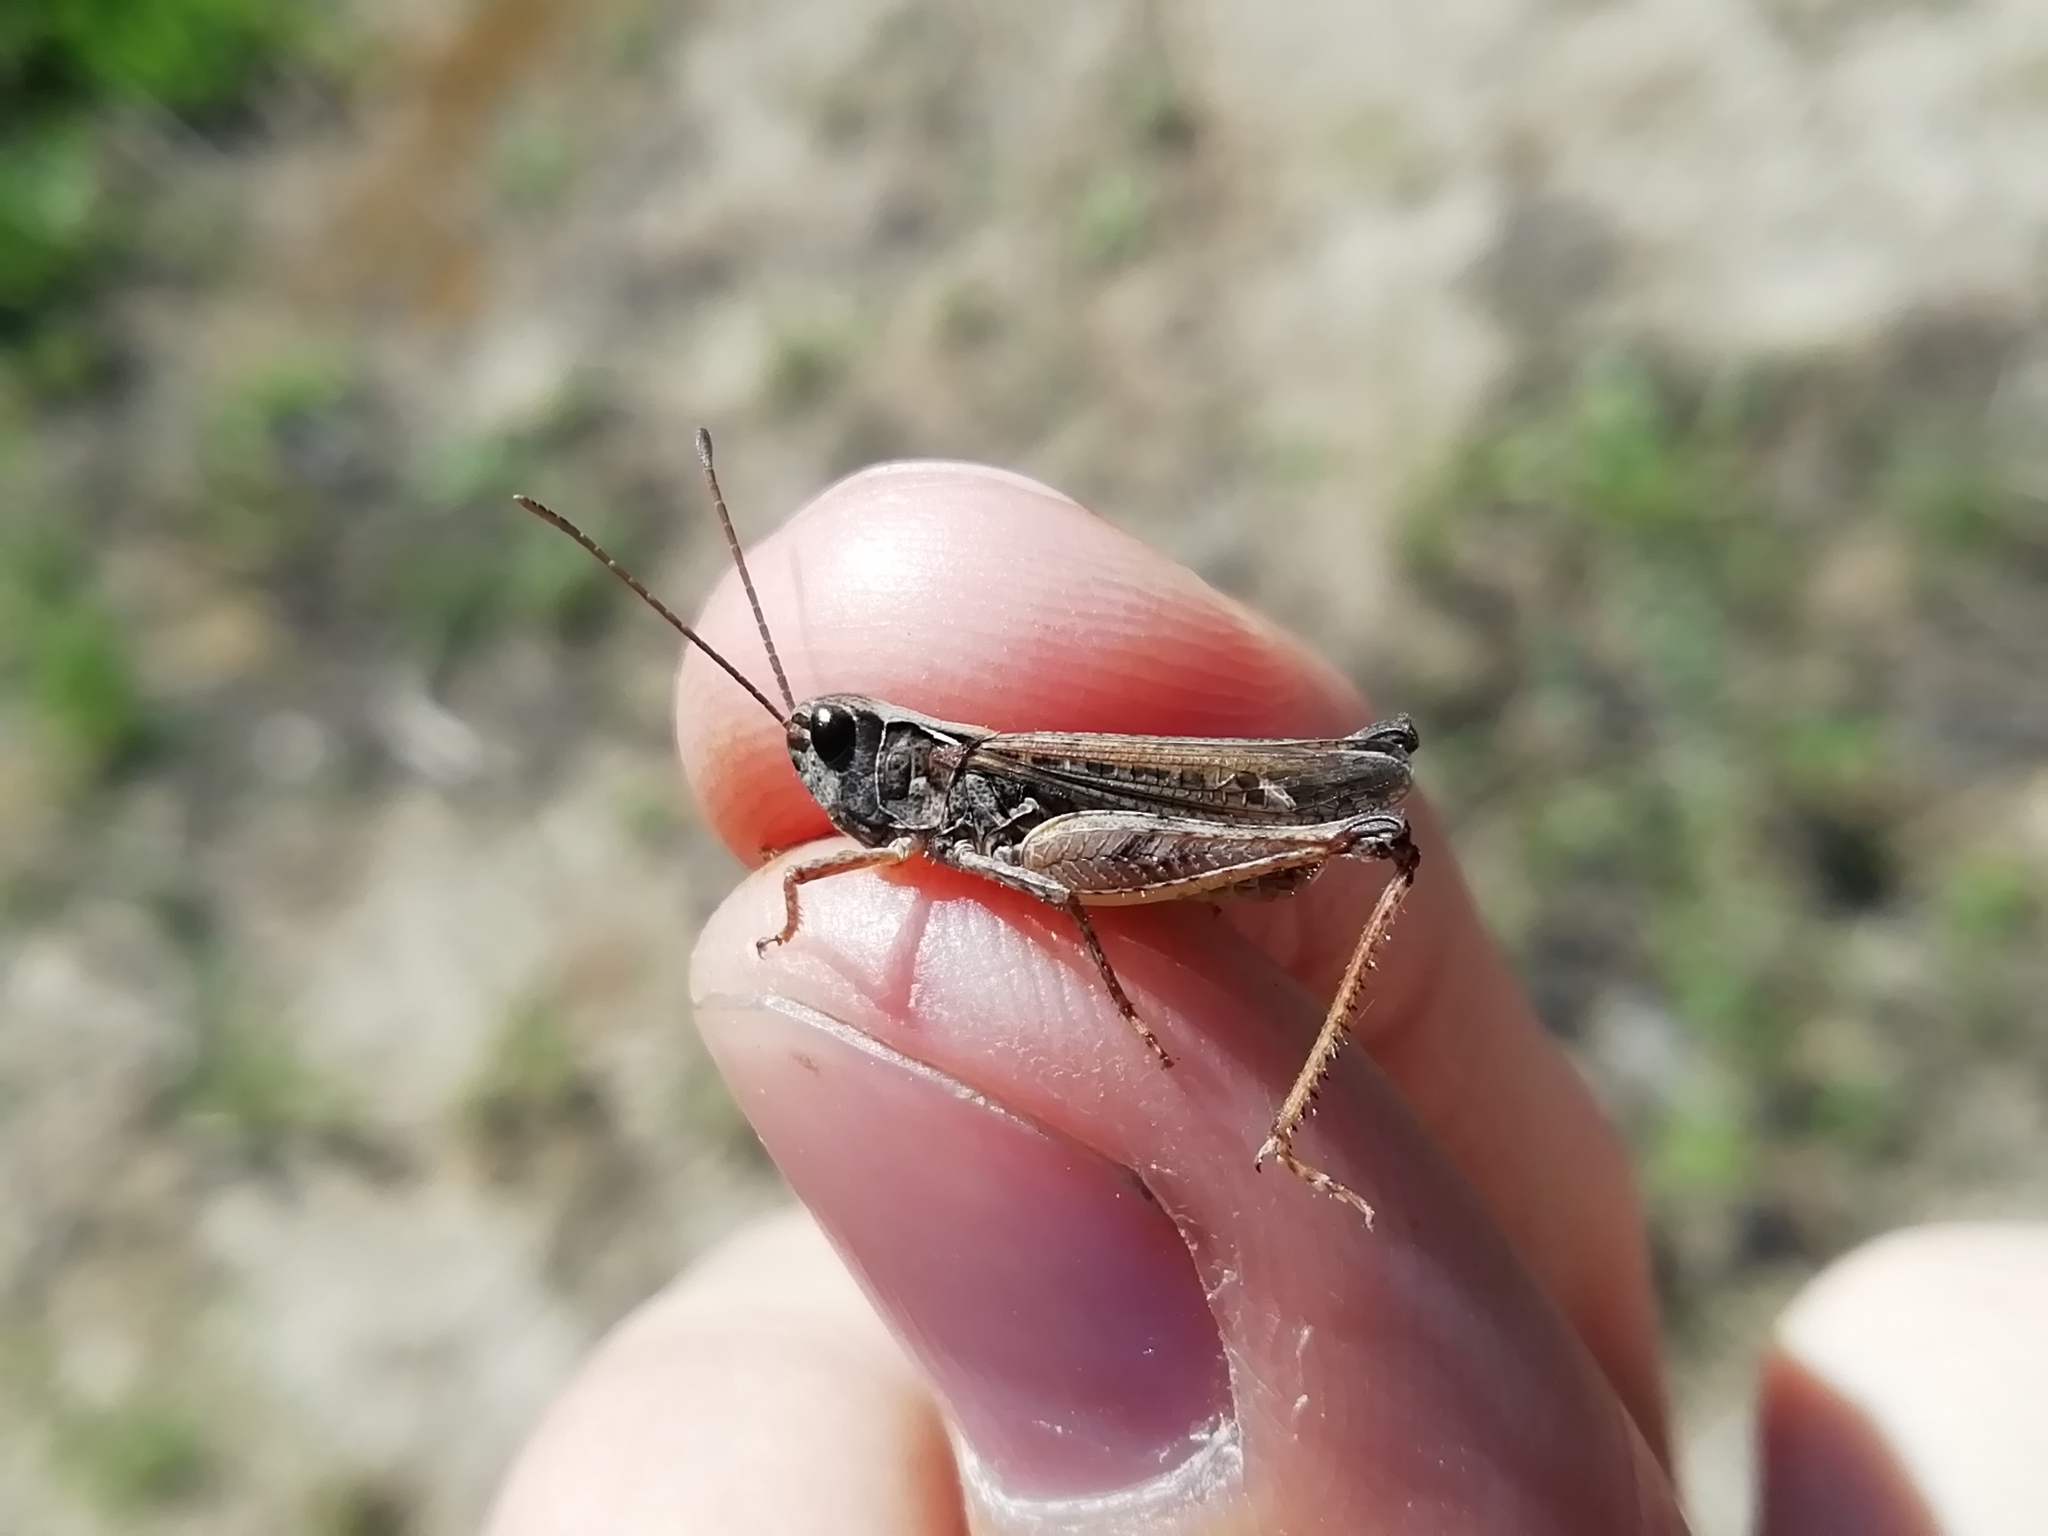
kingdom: Animalia
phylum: Arthropoda
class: Insecta
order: Orthoptera
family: Acrididae
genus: Myrmeleotettix
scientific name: Myrmeleotettix maculatus
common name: Mottled grasshopper
